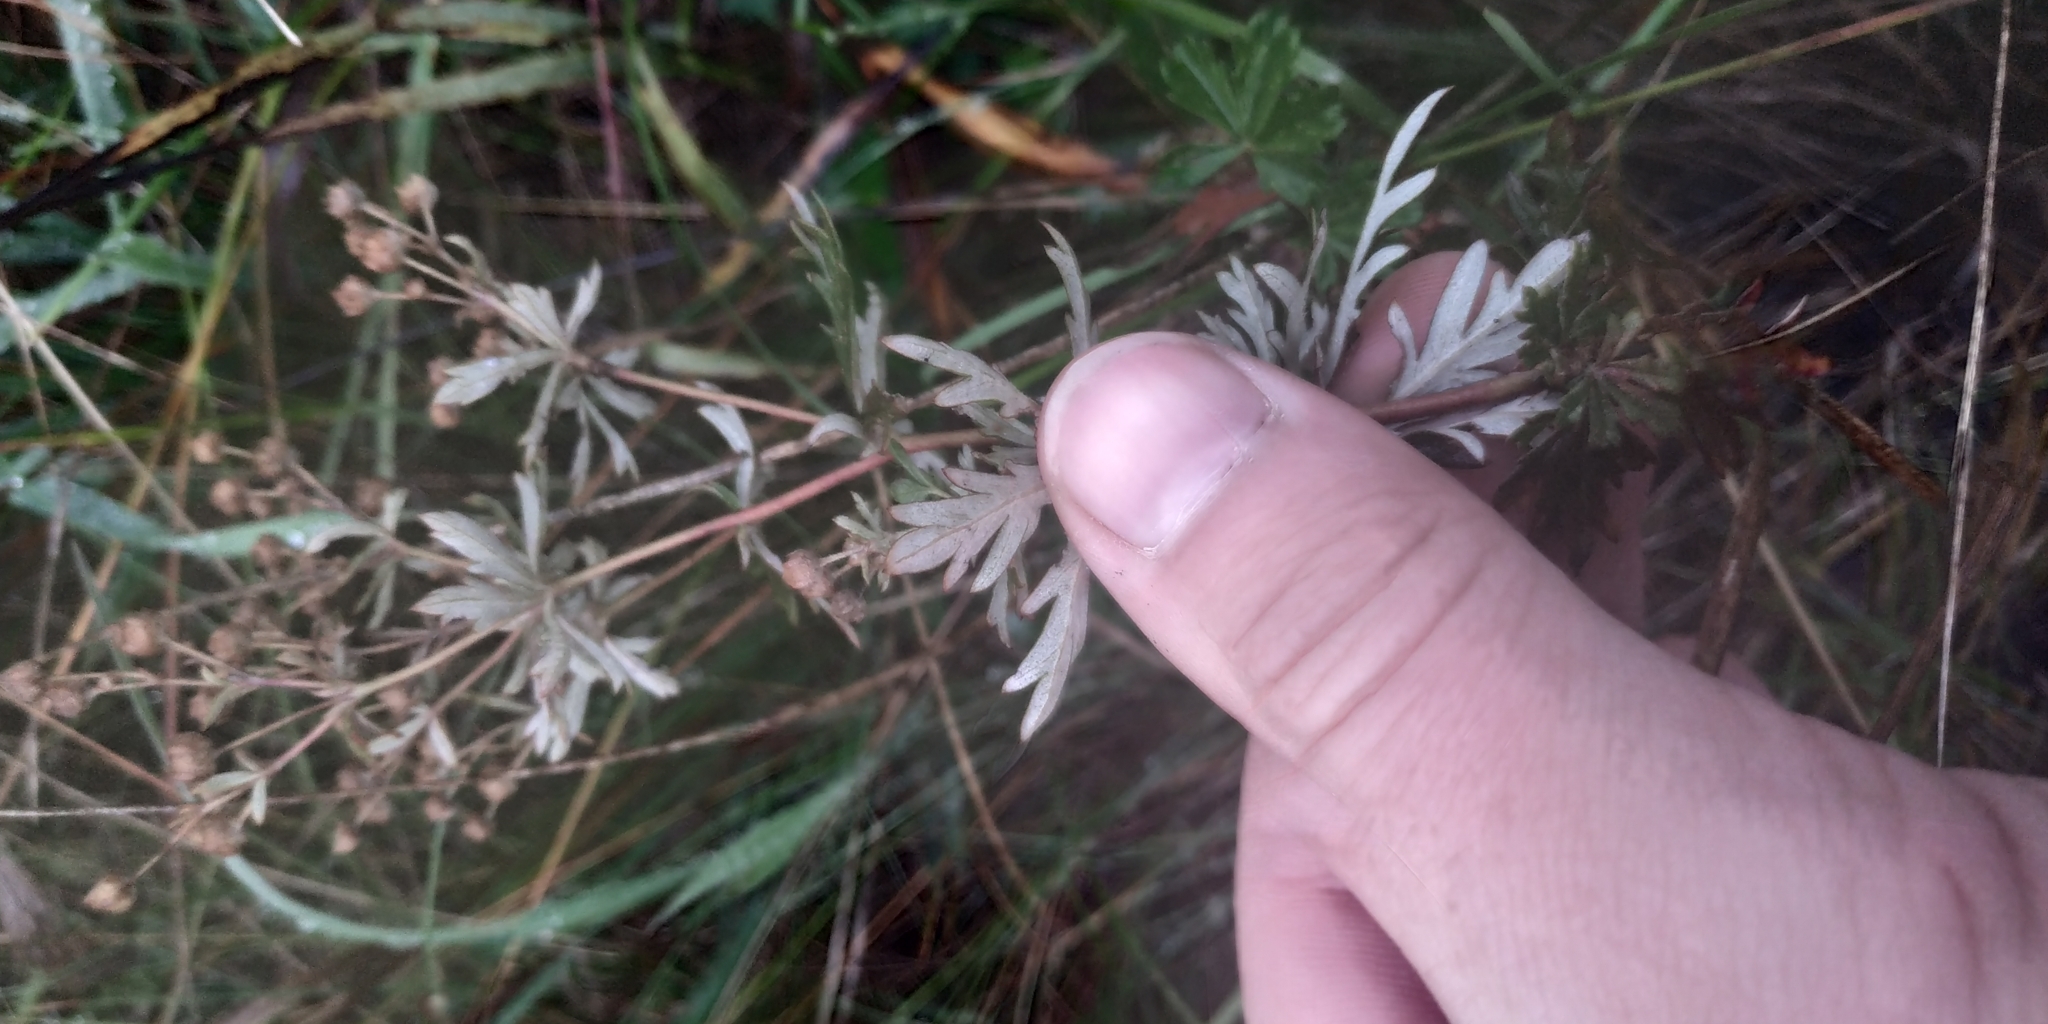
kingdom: Plantae
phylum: Tracheophyta
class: Magnoliopsida
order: Rosales
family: Rosaceae
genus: Potentilla
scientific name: Potentilla argentea
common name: Hoary cinquefoil
